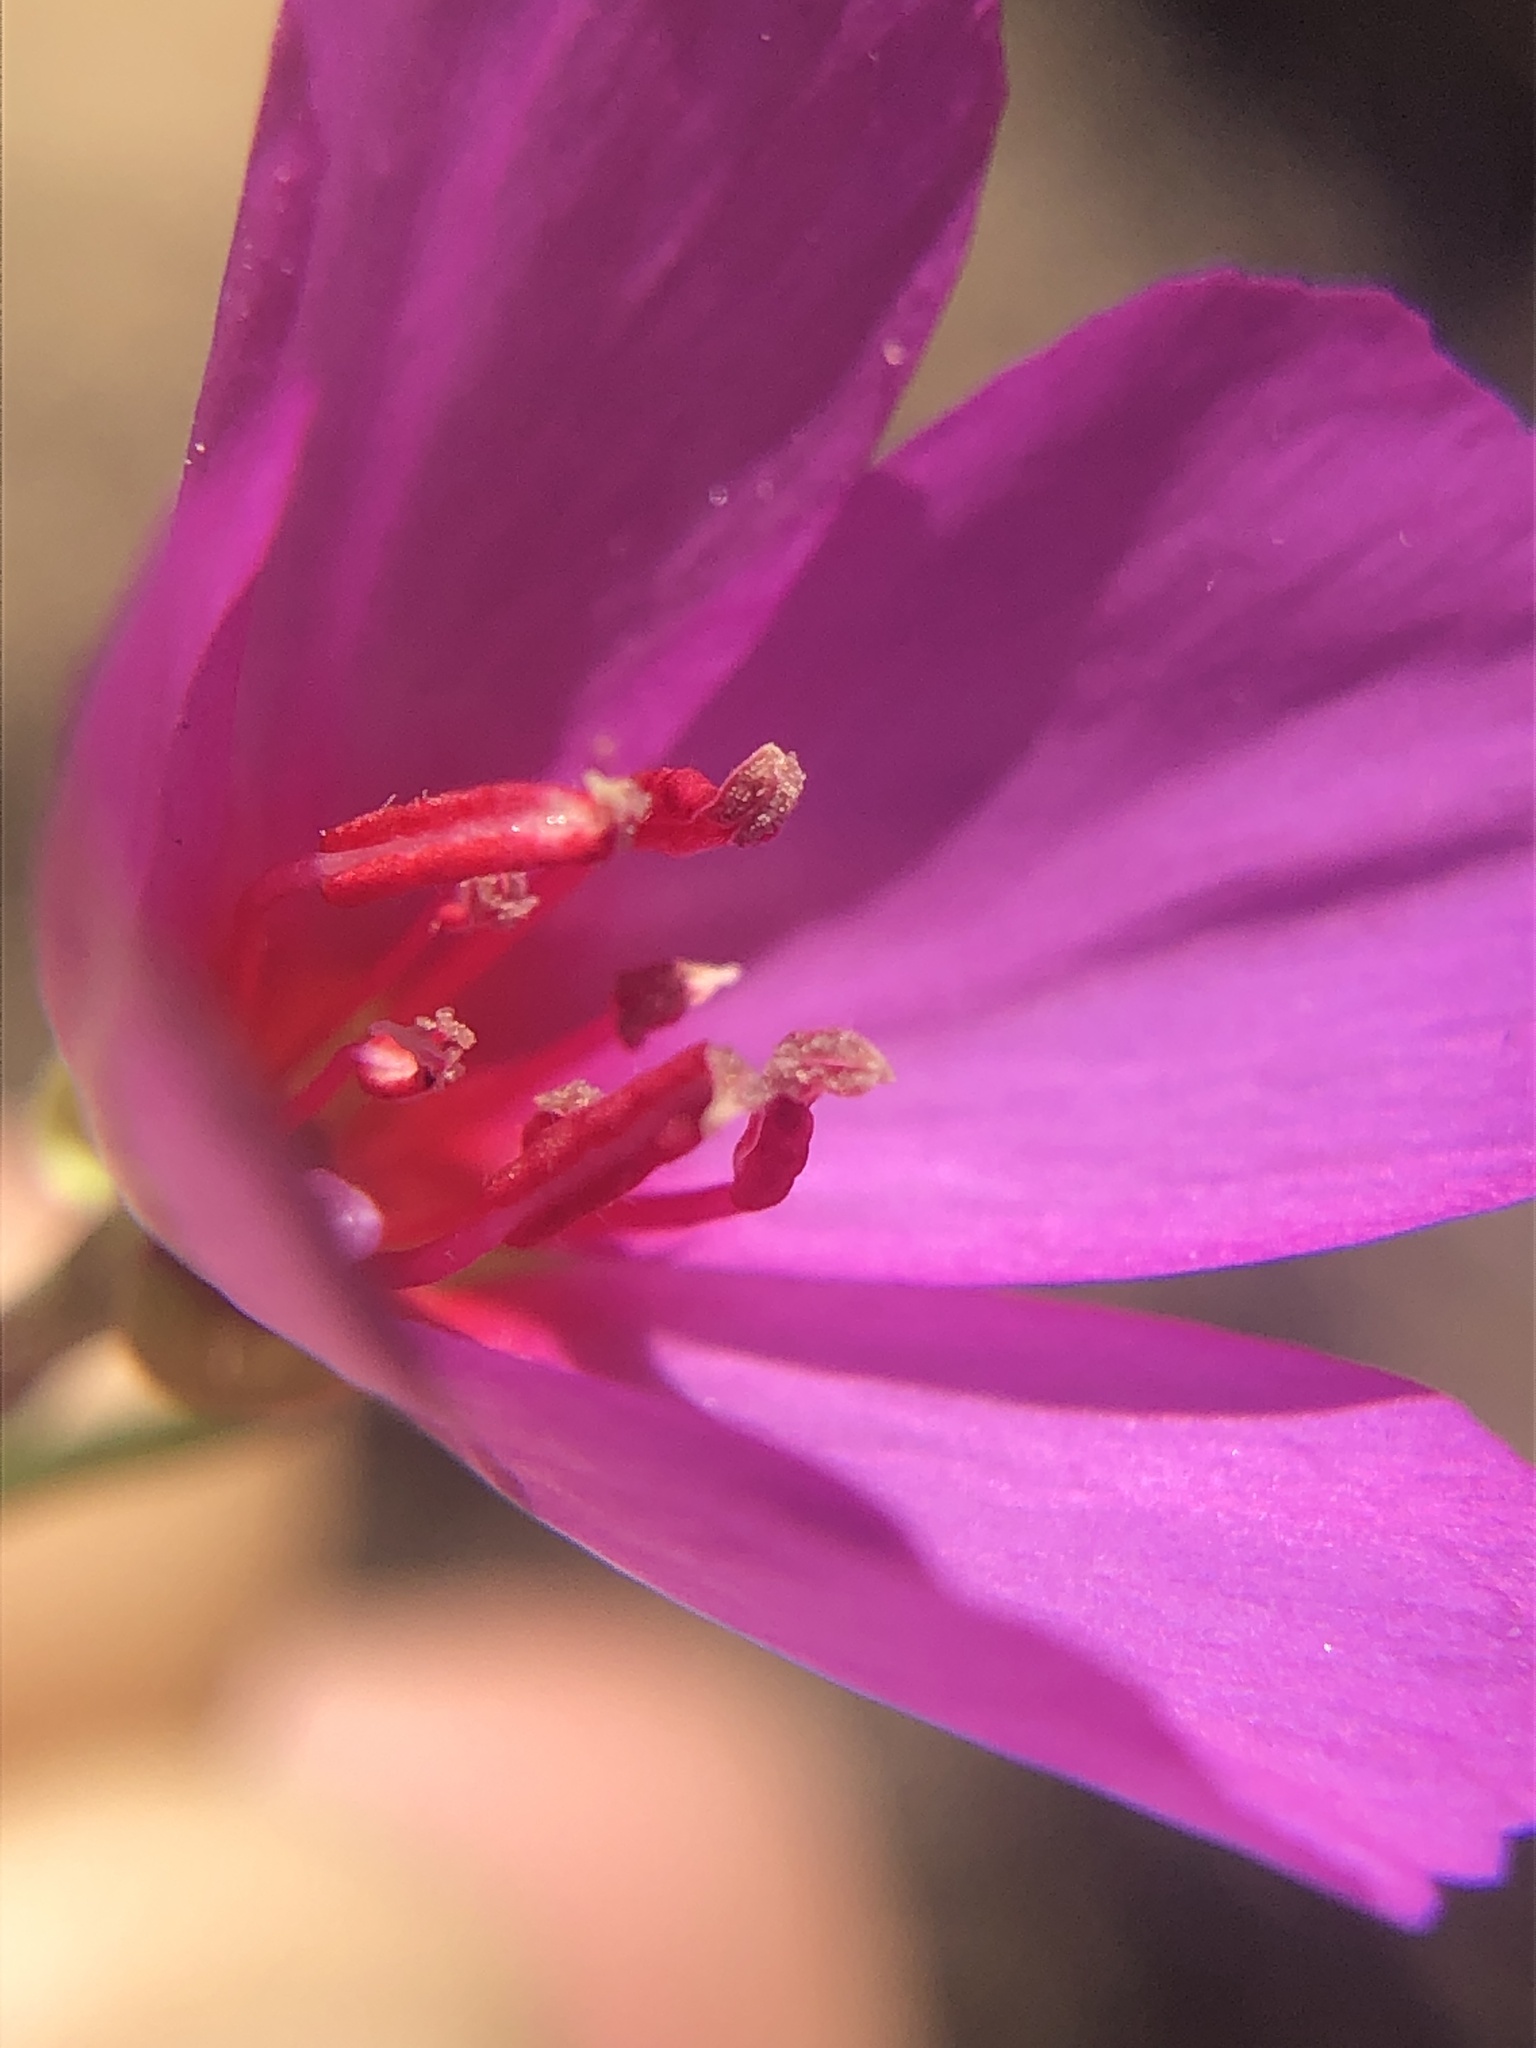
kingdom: Plantae
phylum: Tracheophyta
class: Magnoliopsida
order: Myrtales
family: Onagraceae
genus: Clarkia
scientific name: Clarkia rubicunda
